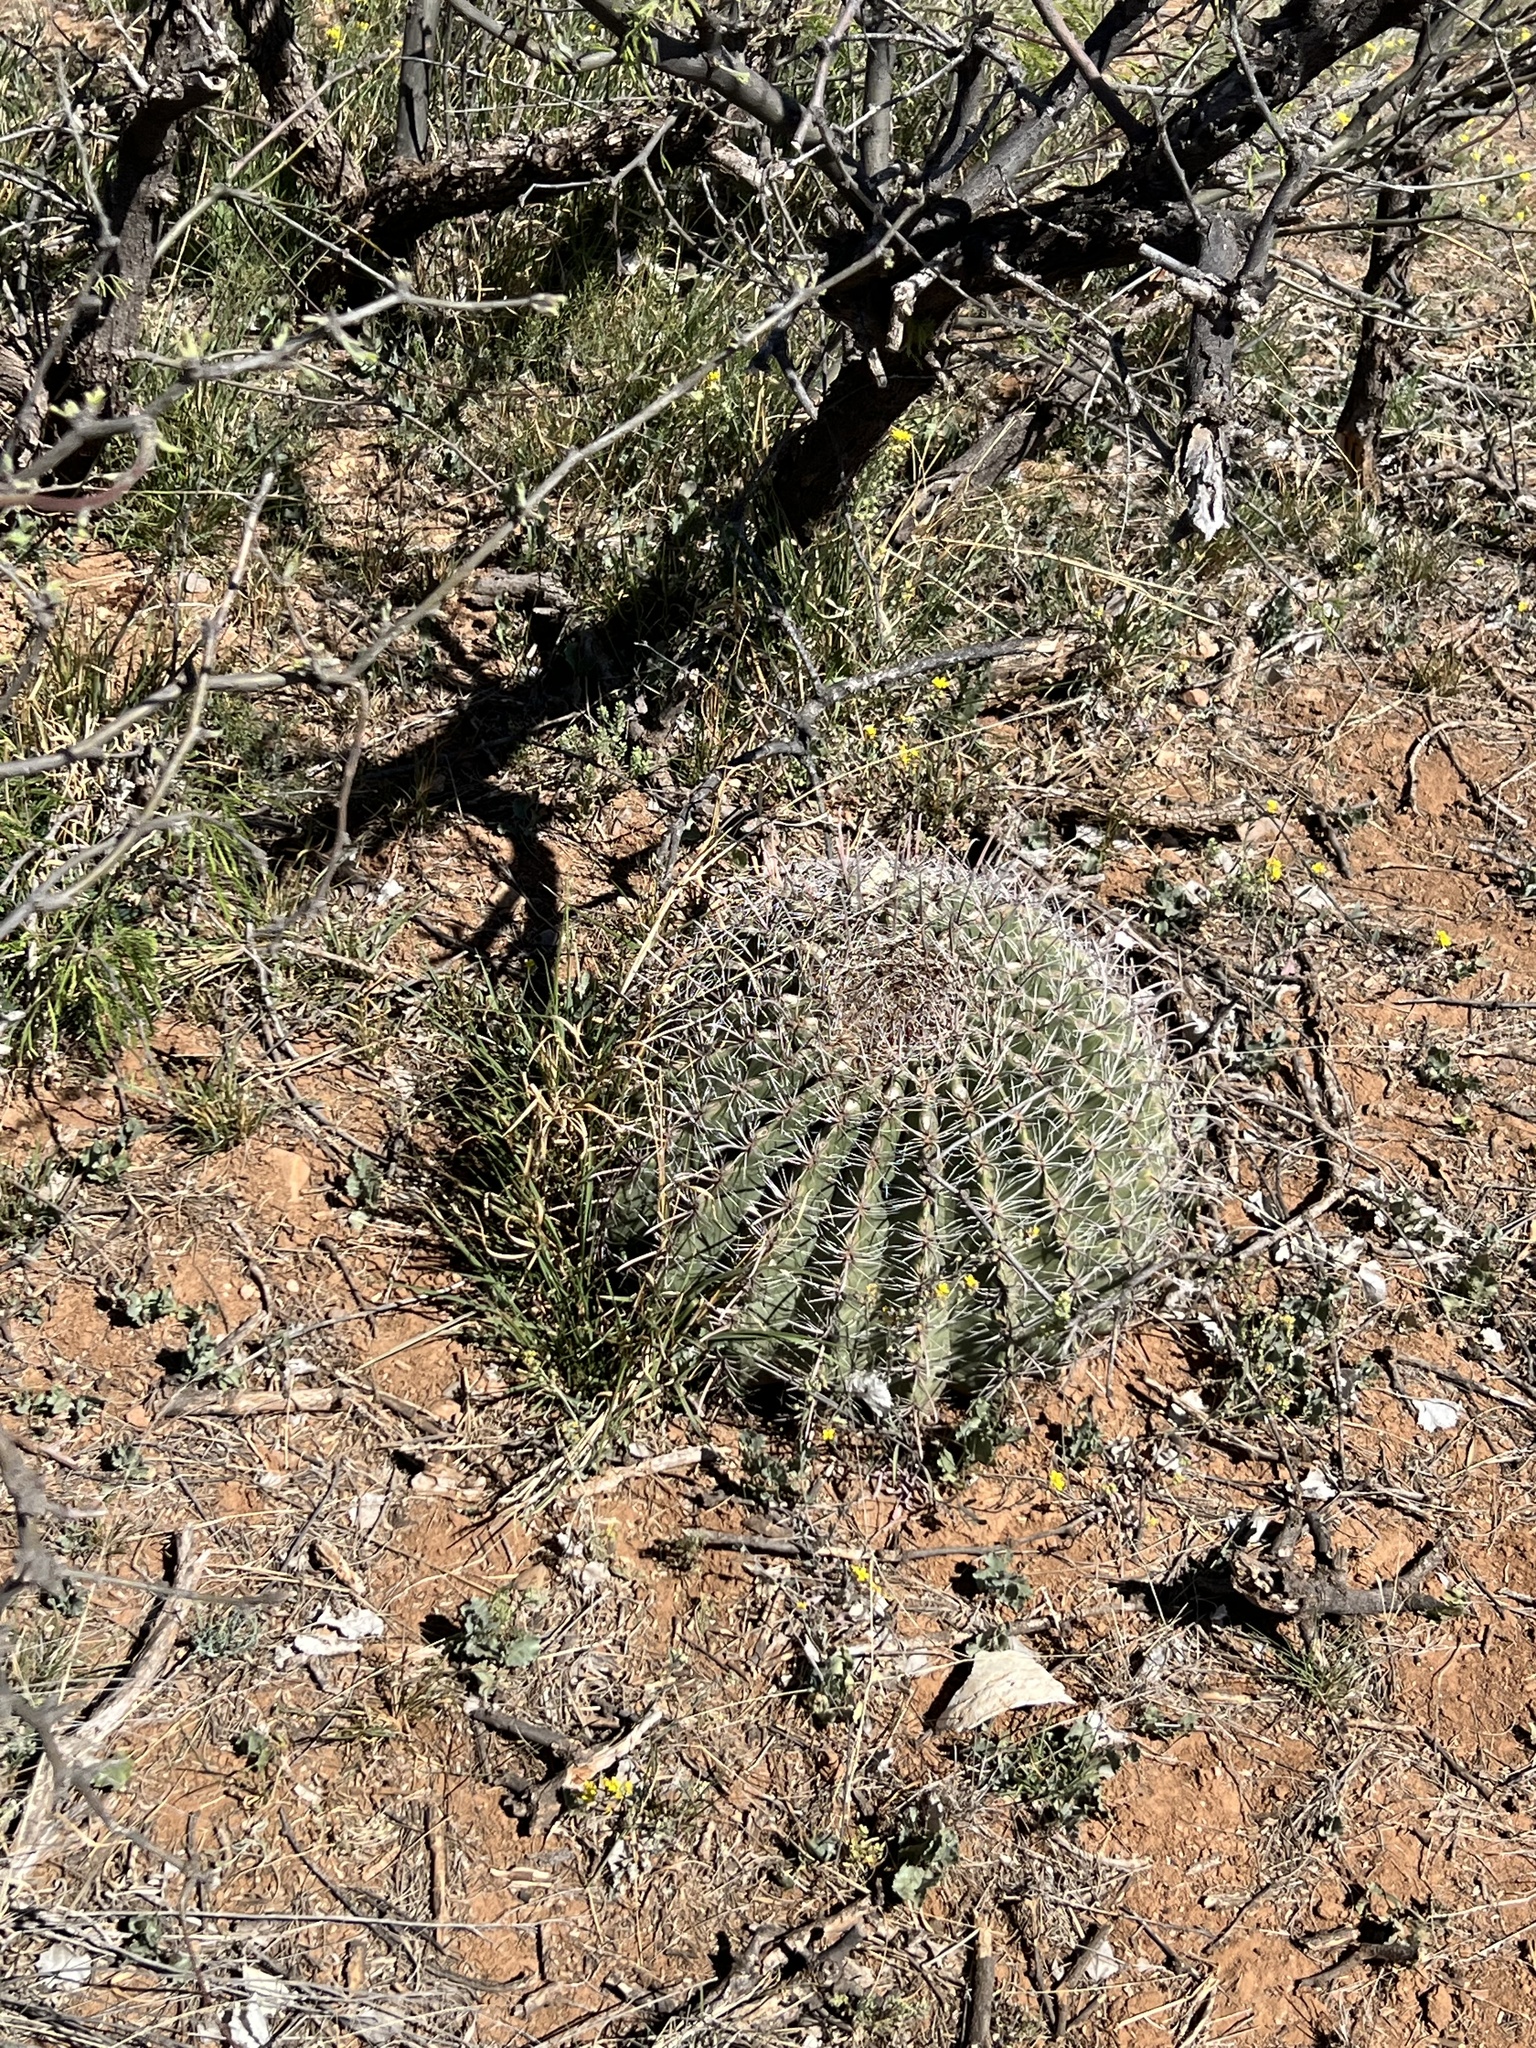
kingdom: Plantae
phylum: Tracheophyta
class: Magnoliopsida
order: Caryophyllales
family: Cactaceae
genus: Ferocactus
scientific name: Ferocactus wislizeni
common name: Candy barrel cactus
